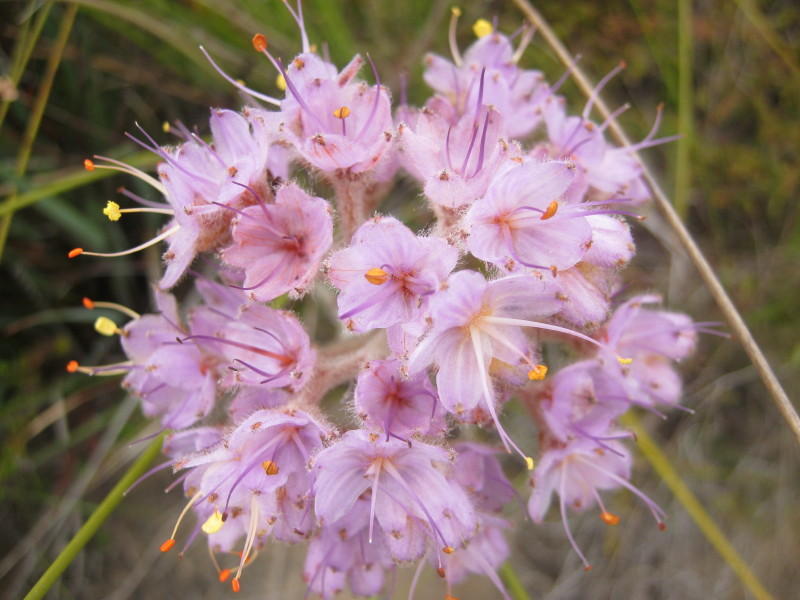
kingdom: Plantae
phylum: Tracheophyta
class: Liliopsida
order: Commelinales
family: Haemodoraceae
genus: Dilatris
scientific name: Dilatris ixioides
